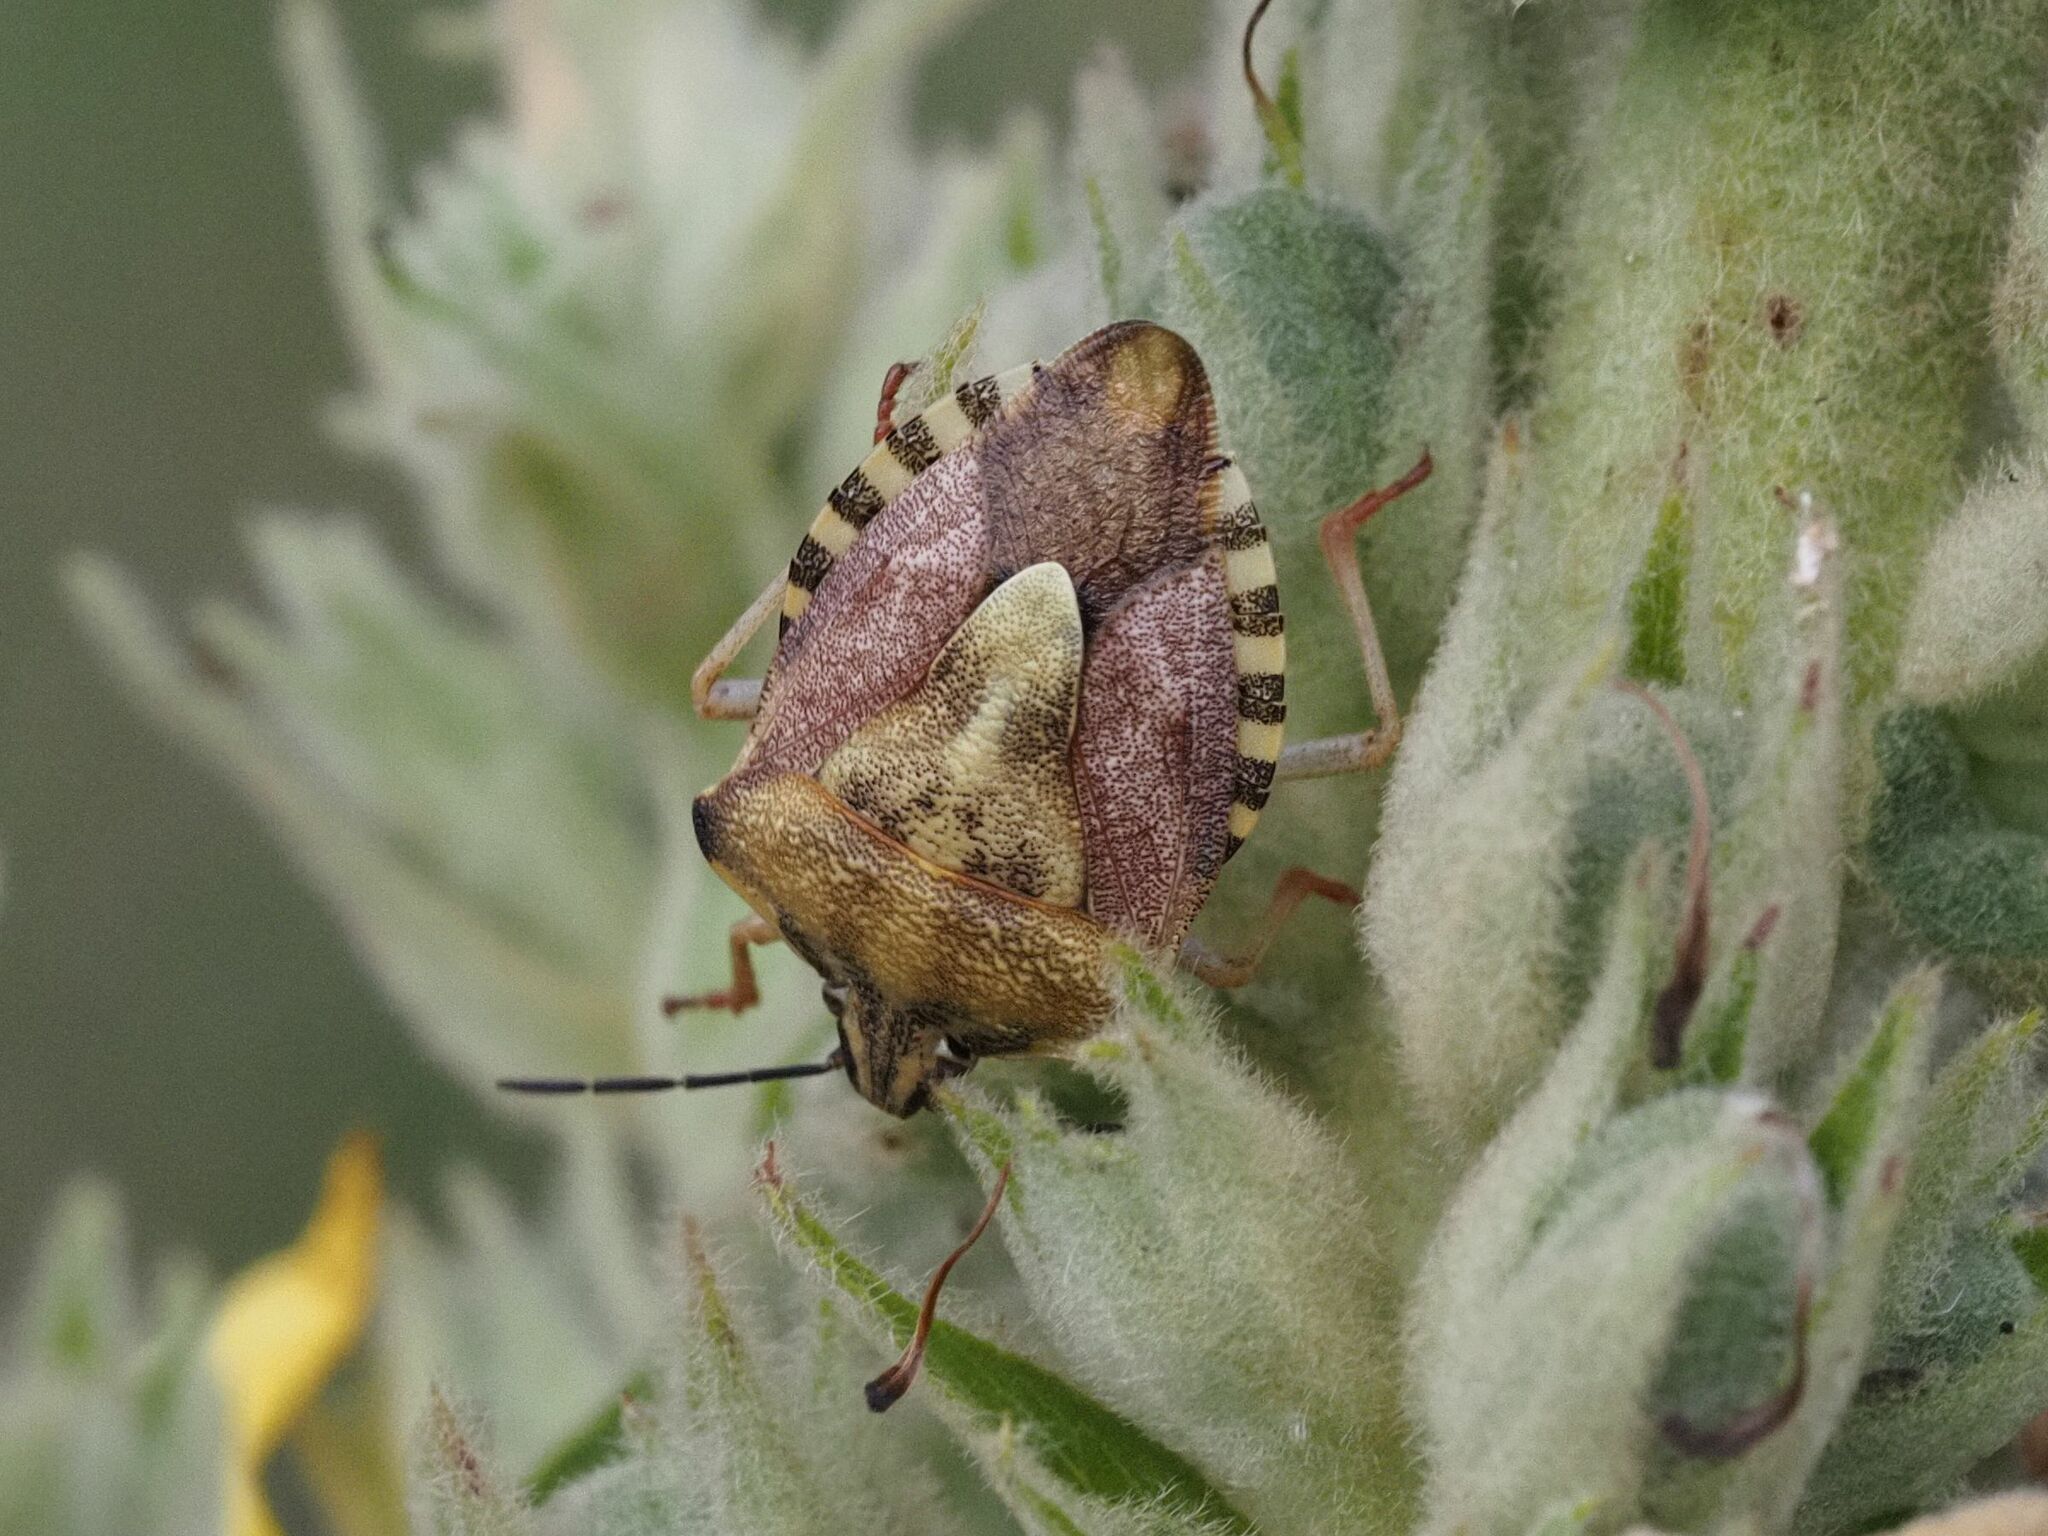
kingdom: Animalia
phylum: Arthropoda
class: Insecta
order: Hemiptera
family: Pentatomidae
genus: Carpocoris
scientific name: Carpocoris purpureipennis
